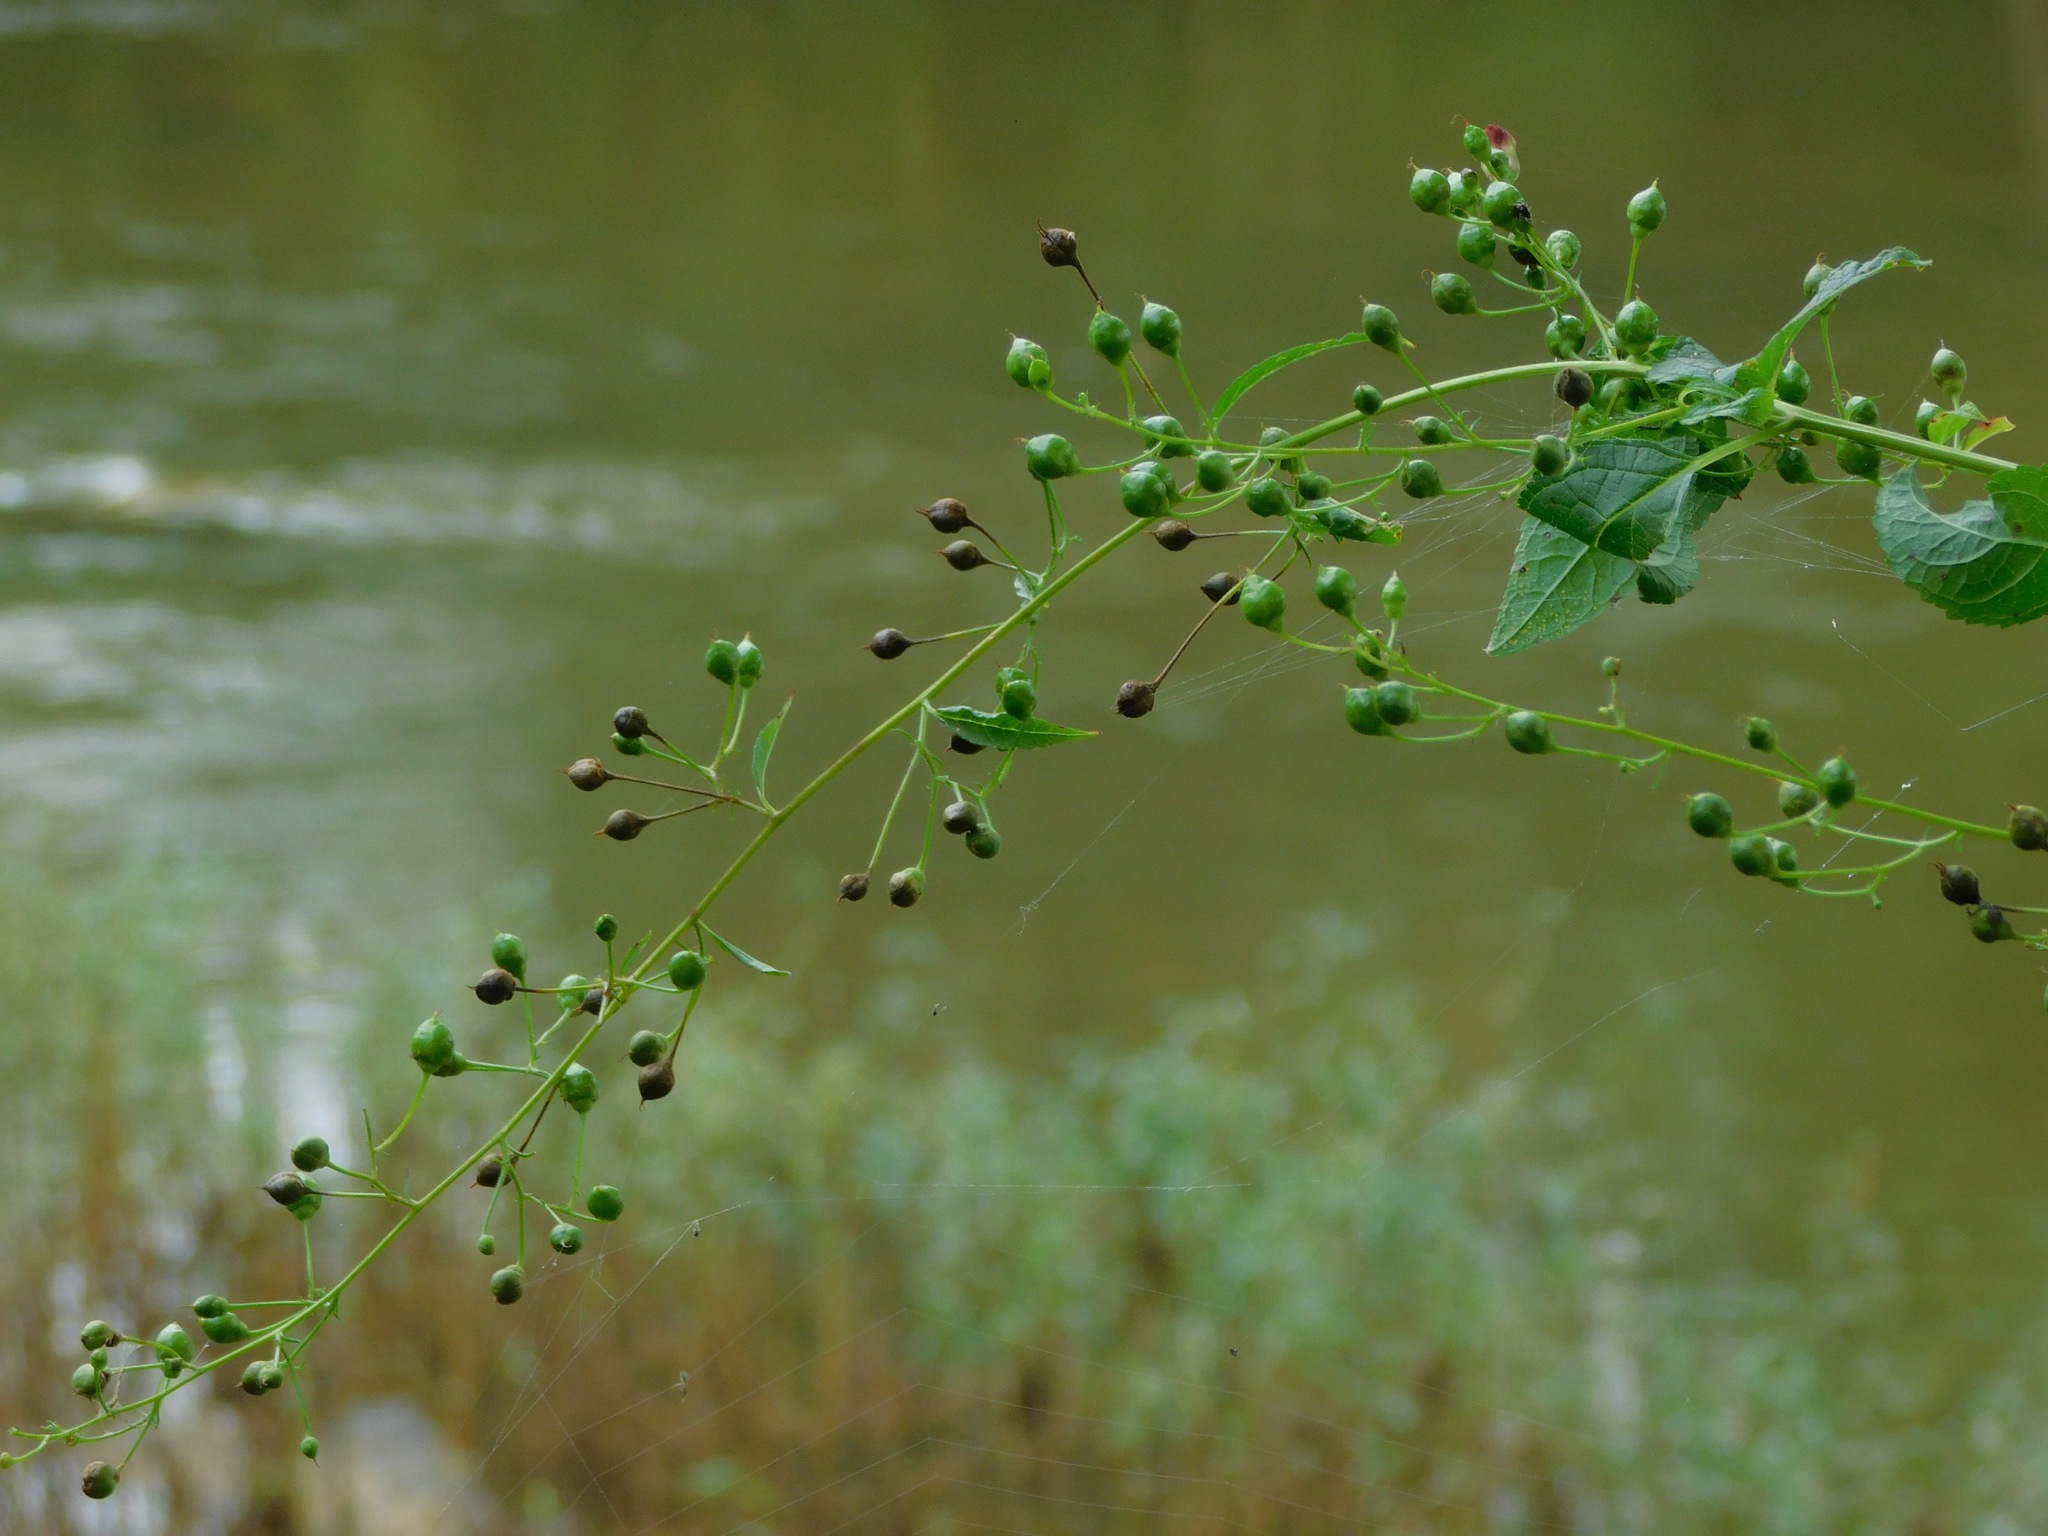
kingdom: Plantae
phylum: Tracheophyta
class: Magnoliopsida
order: Lamiales
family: Scrophulariaceae
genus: Scrophularia
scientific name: Scrophularia marilandica
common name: Eastern figwort
